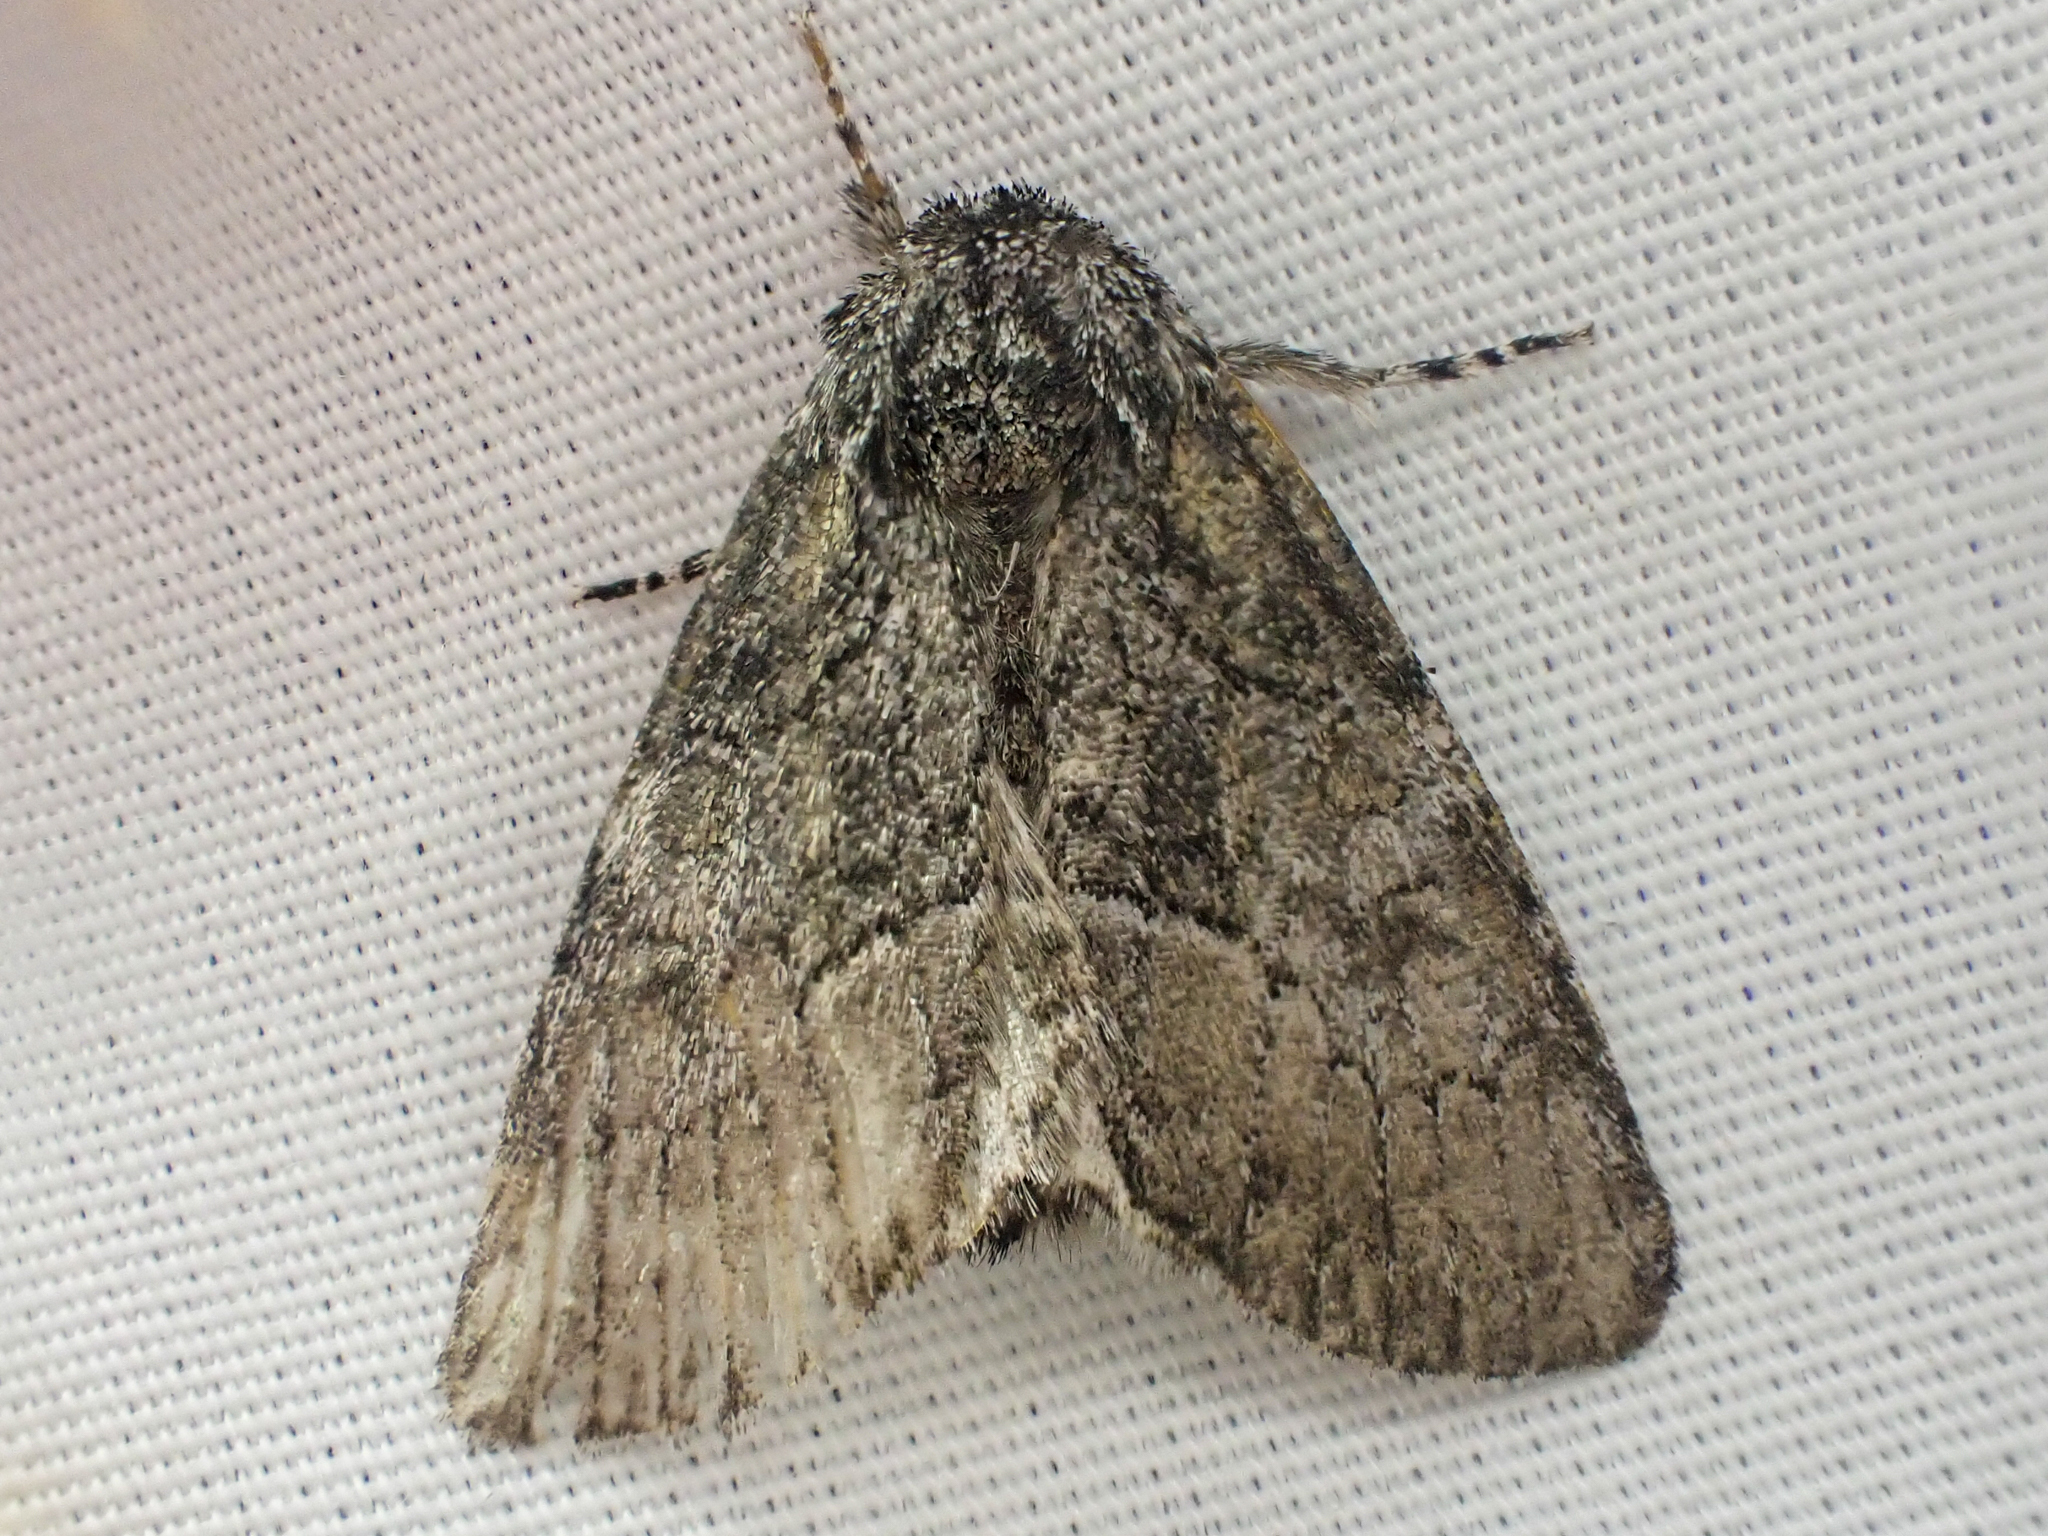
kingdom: Animalia
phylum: Arthropoda
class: Insecta
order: Lepidoptera
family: Noctuidae
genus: Raphia
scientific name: Raphia frater
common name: Brother
